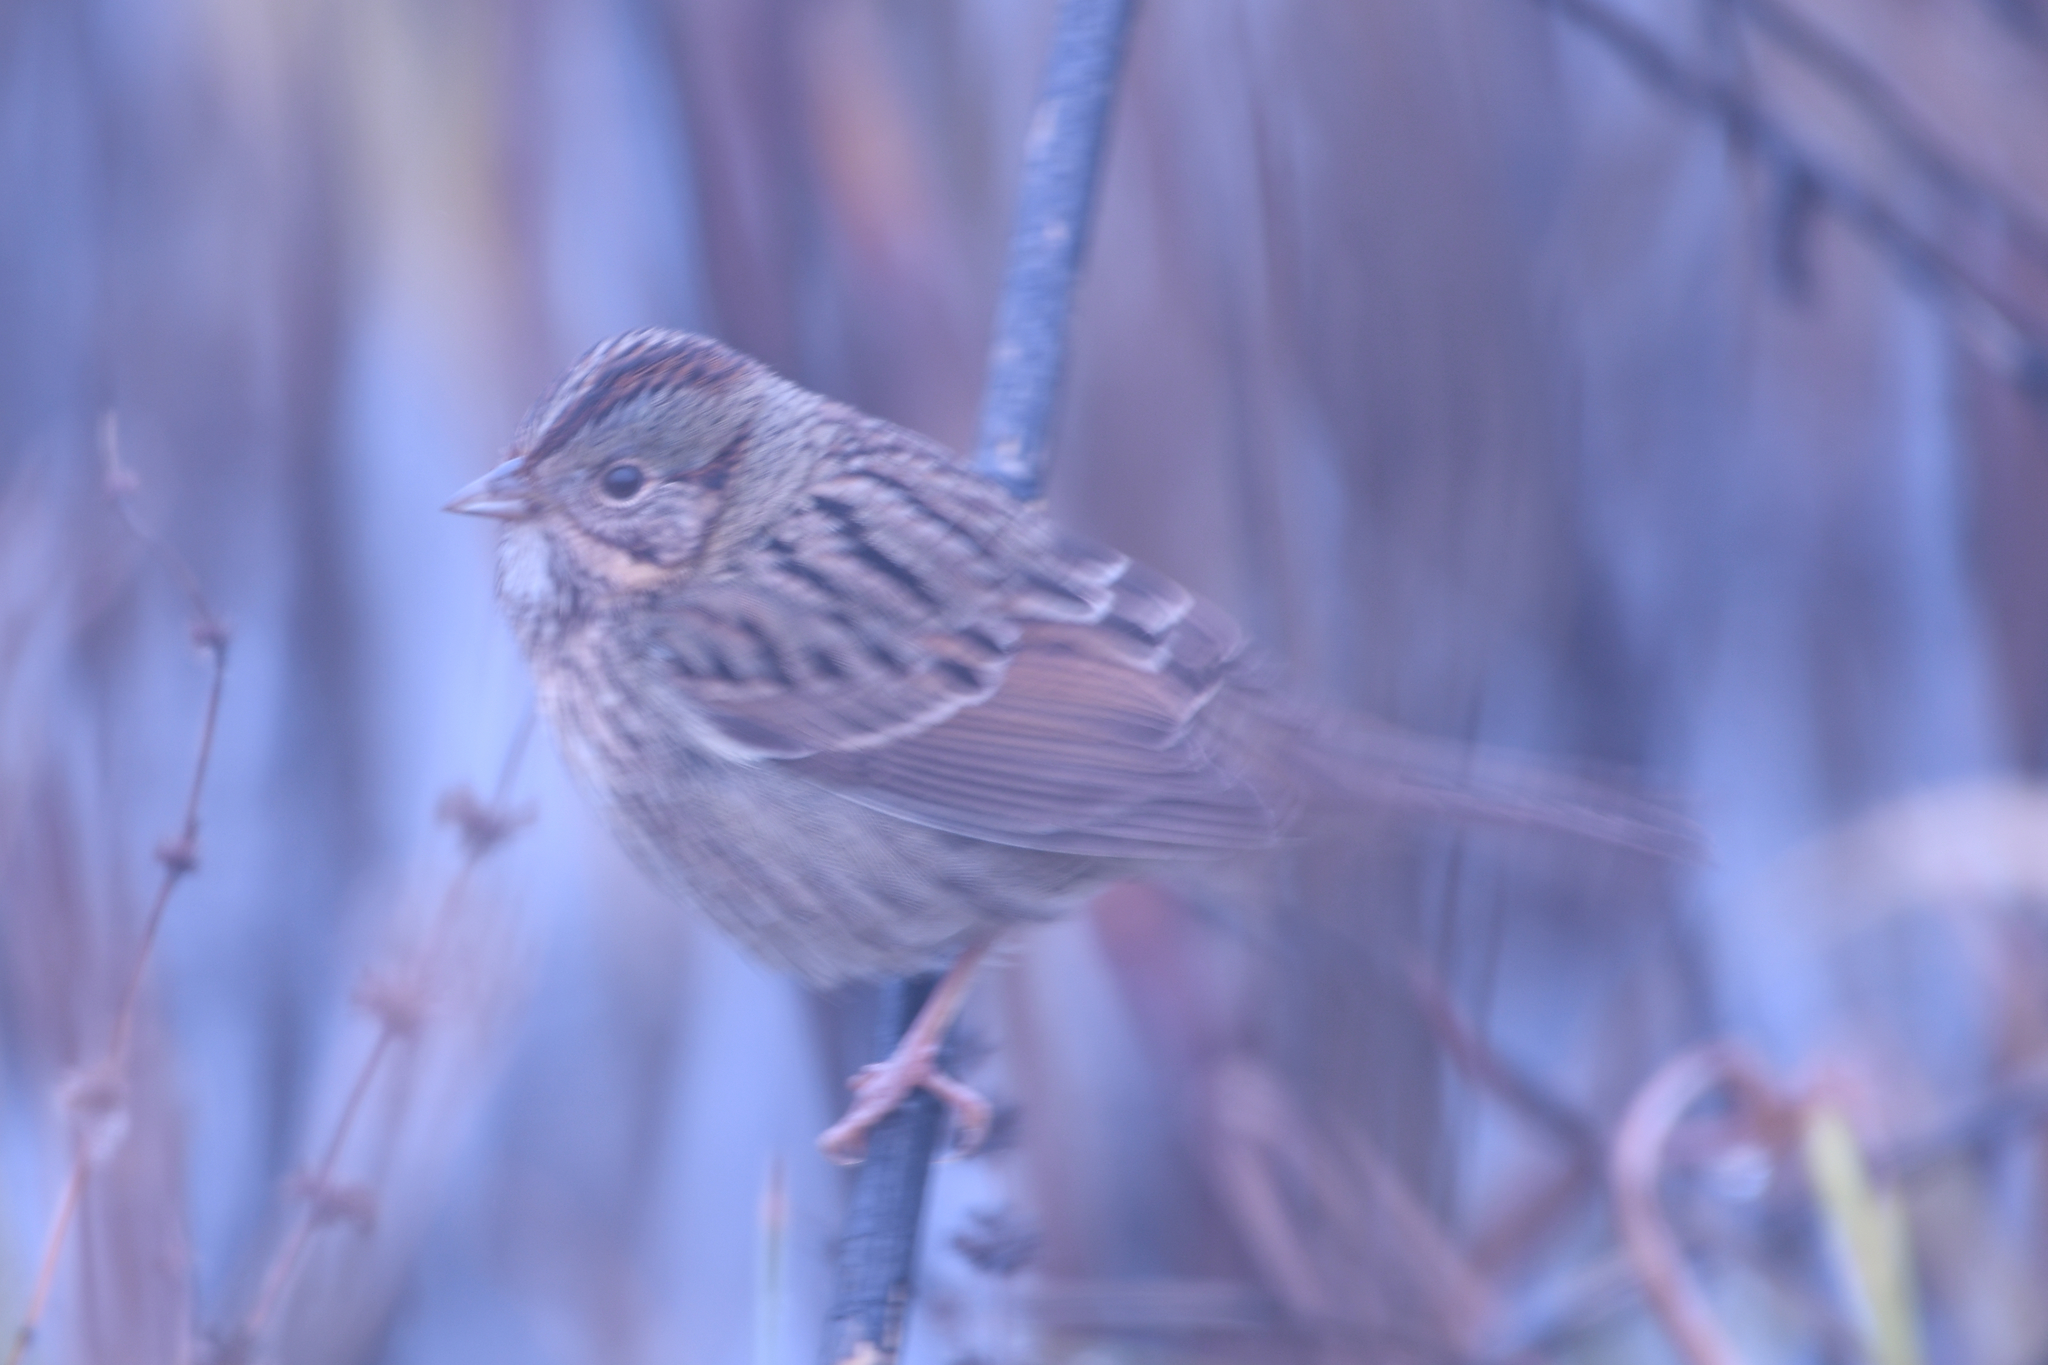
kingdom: Animalia
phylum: Chordata
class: Aves
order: Passeriformes
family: Passerellidae
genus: Melospiza
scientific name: Melospiza lincolnii
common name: Lincoln's sparrow
